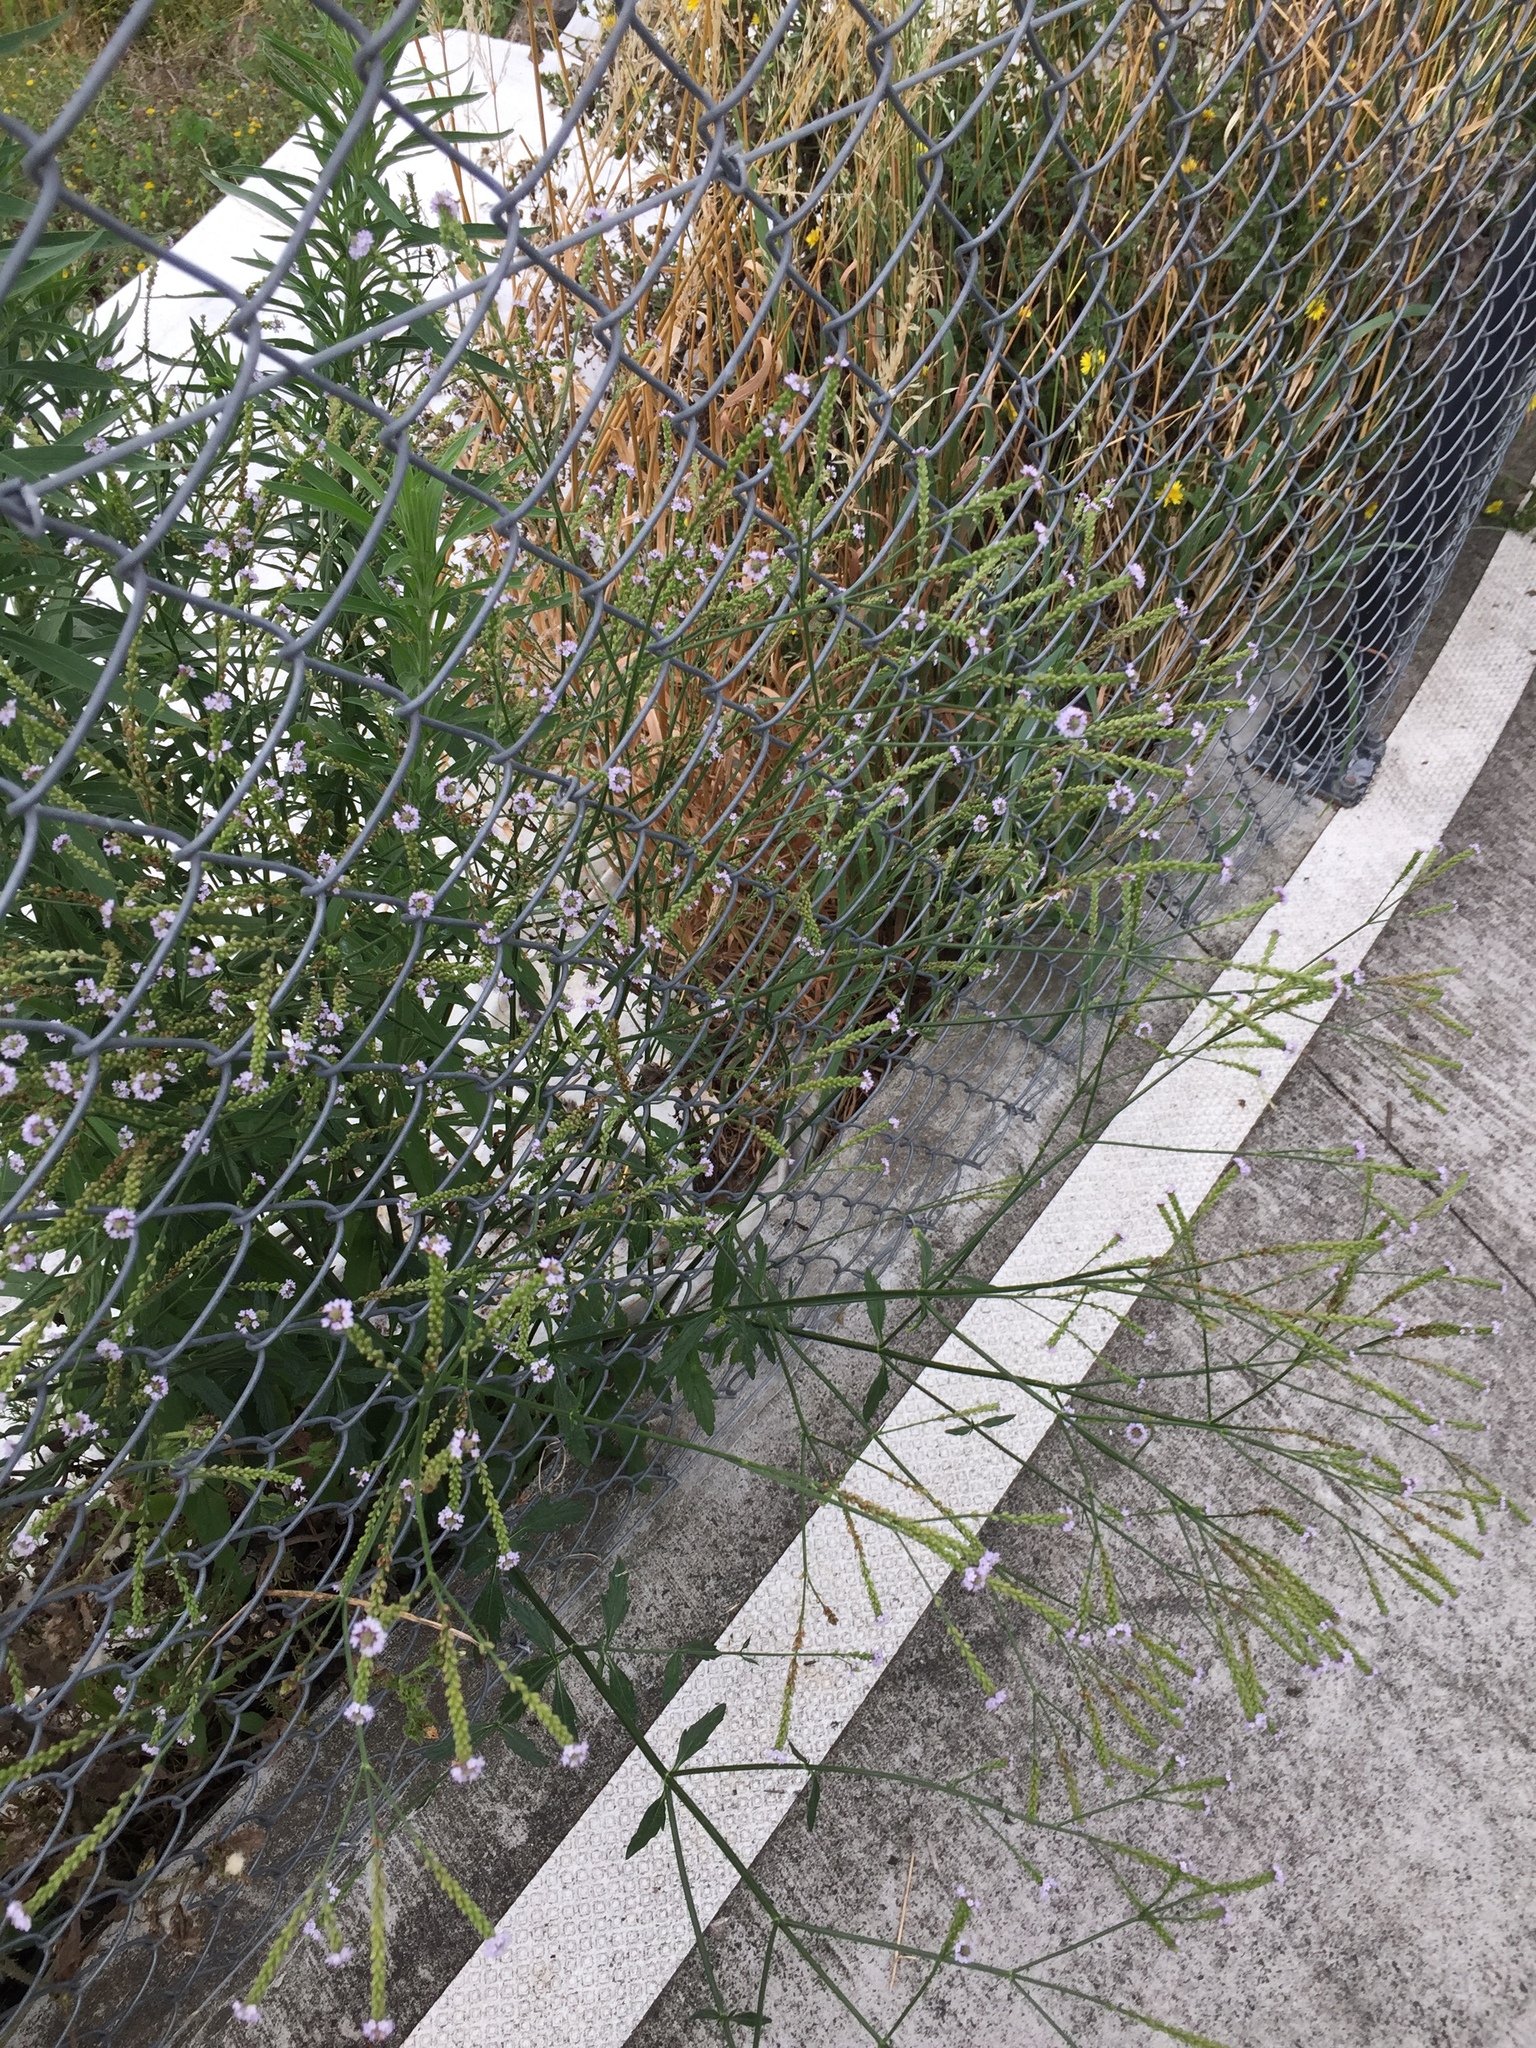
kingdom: Plantae
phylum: Tracheophyta
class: Magnoliopsida
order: Lamiales
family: Verbenaceae
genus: Verbena
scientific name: Verbena litoralis
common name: Seashore vervain
